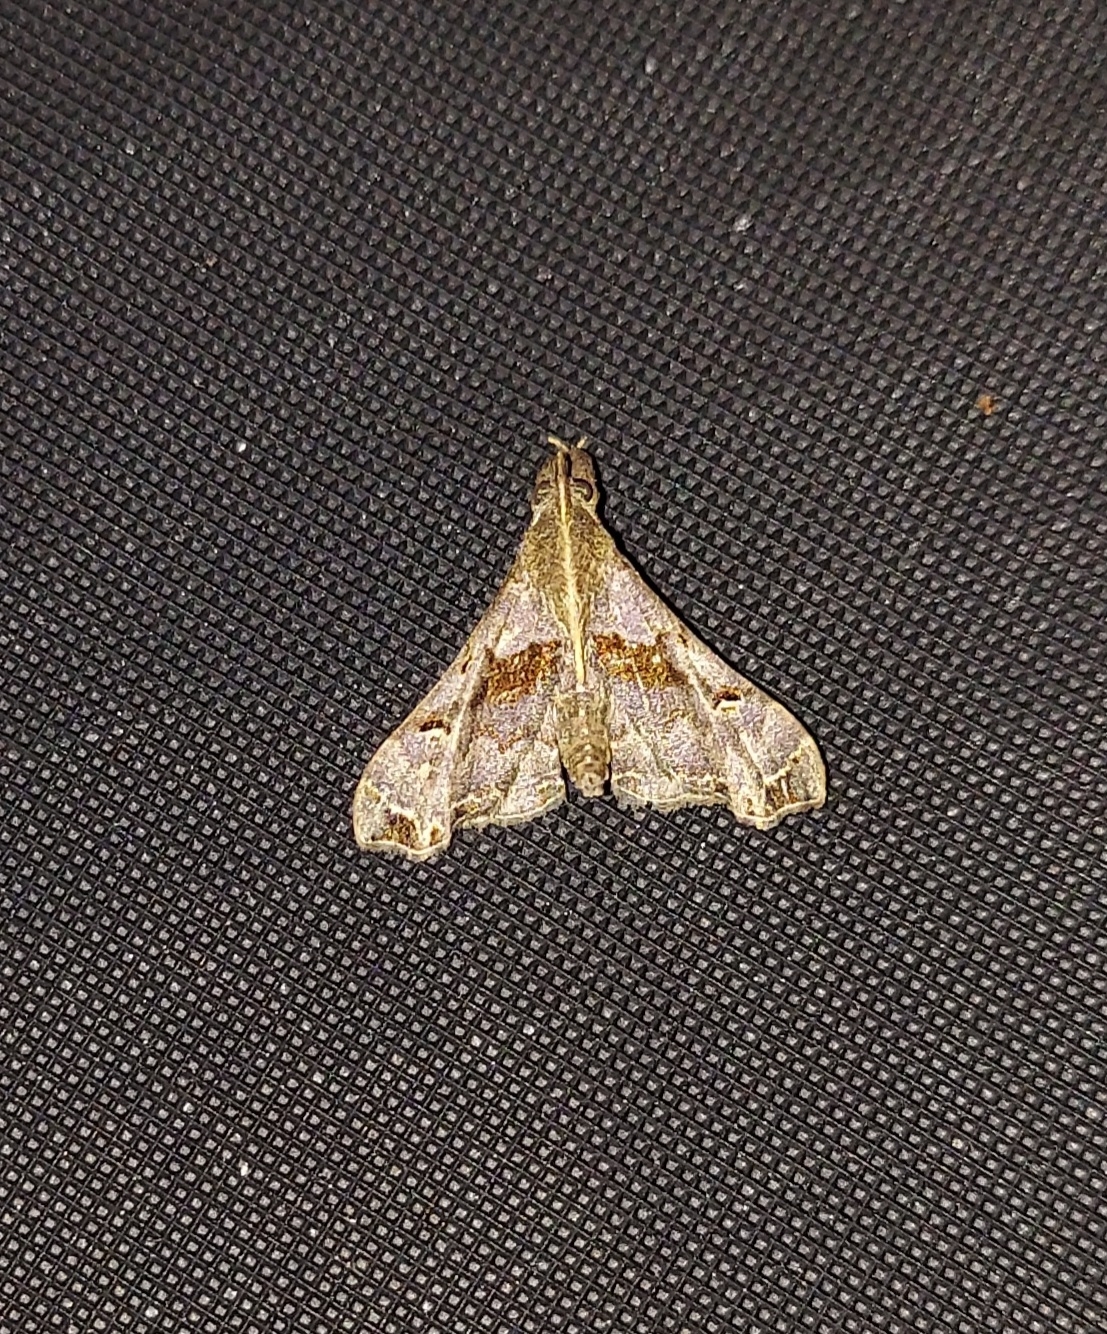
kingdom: Animalia
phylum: Arthropoda
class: Insecta
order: Lepidoptera
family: Erebidae
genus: Palthis
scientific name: Palthis asopialis
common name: Faint-spotted palthis moth
